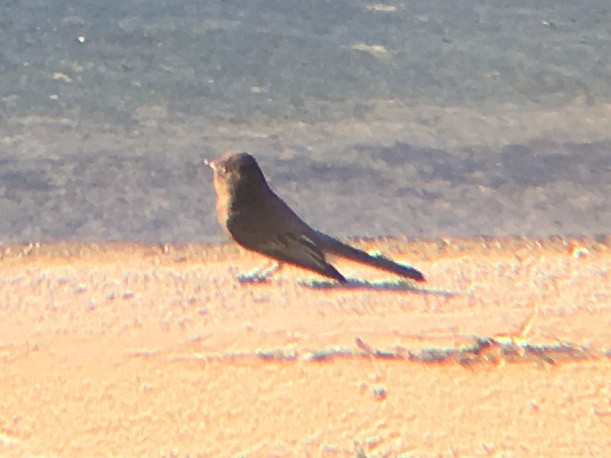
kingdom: Animalia
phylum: Chordata
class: Aves
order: Passeriformes
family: Tyrannidae
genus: Sayornis
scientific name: Sayornis nigricans
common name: Black phoebe
